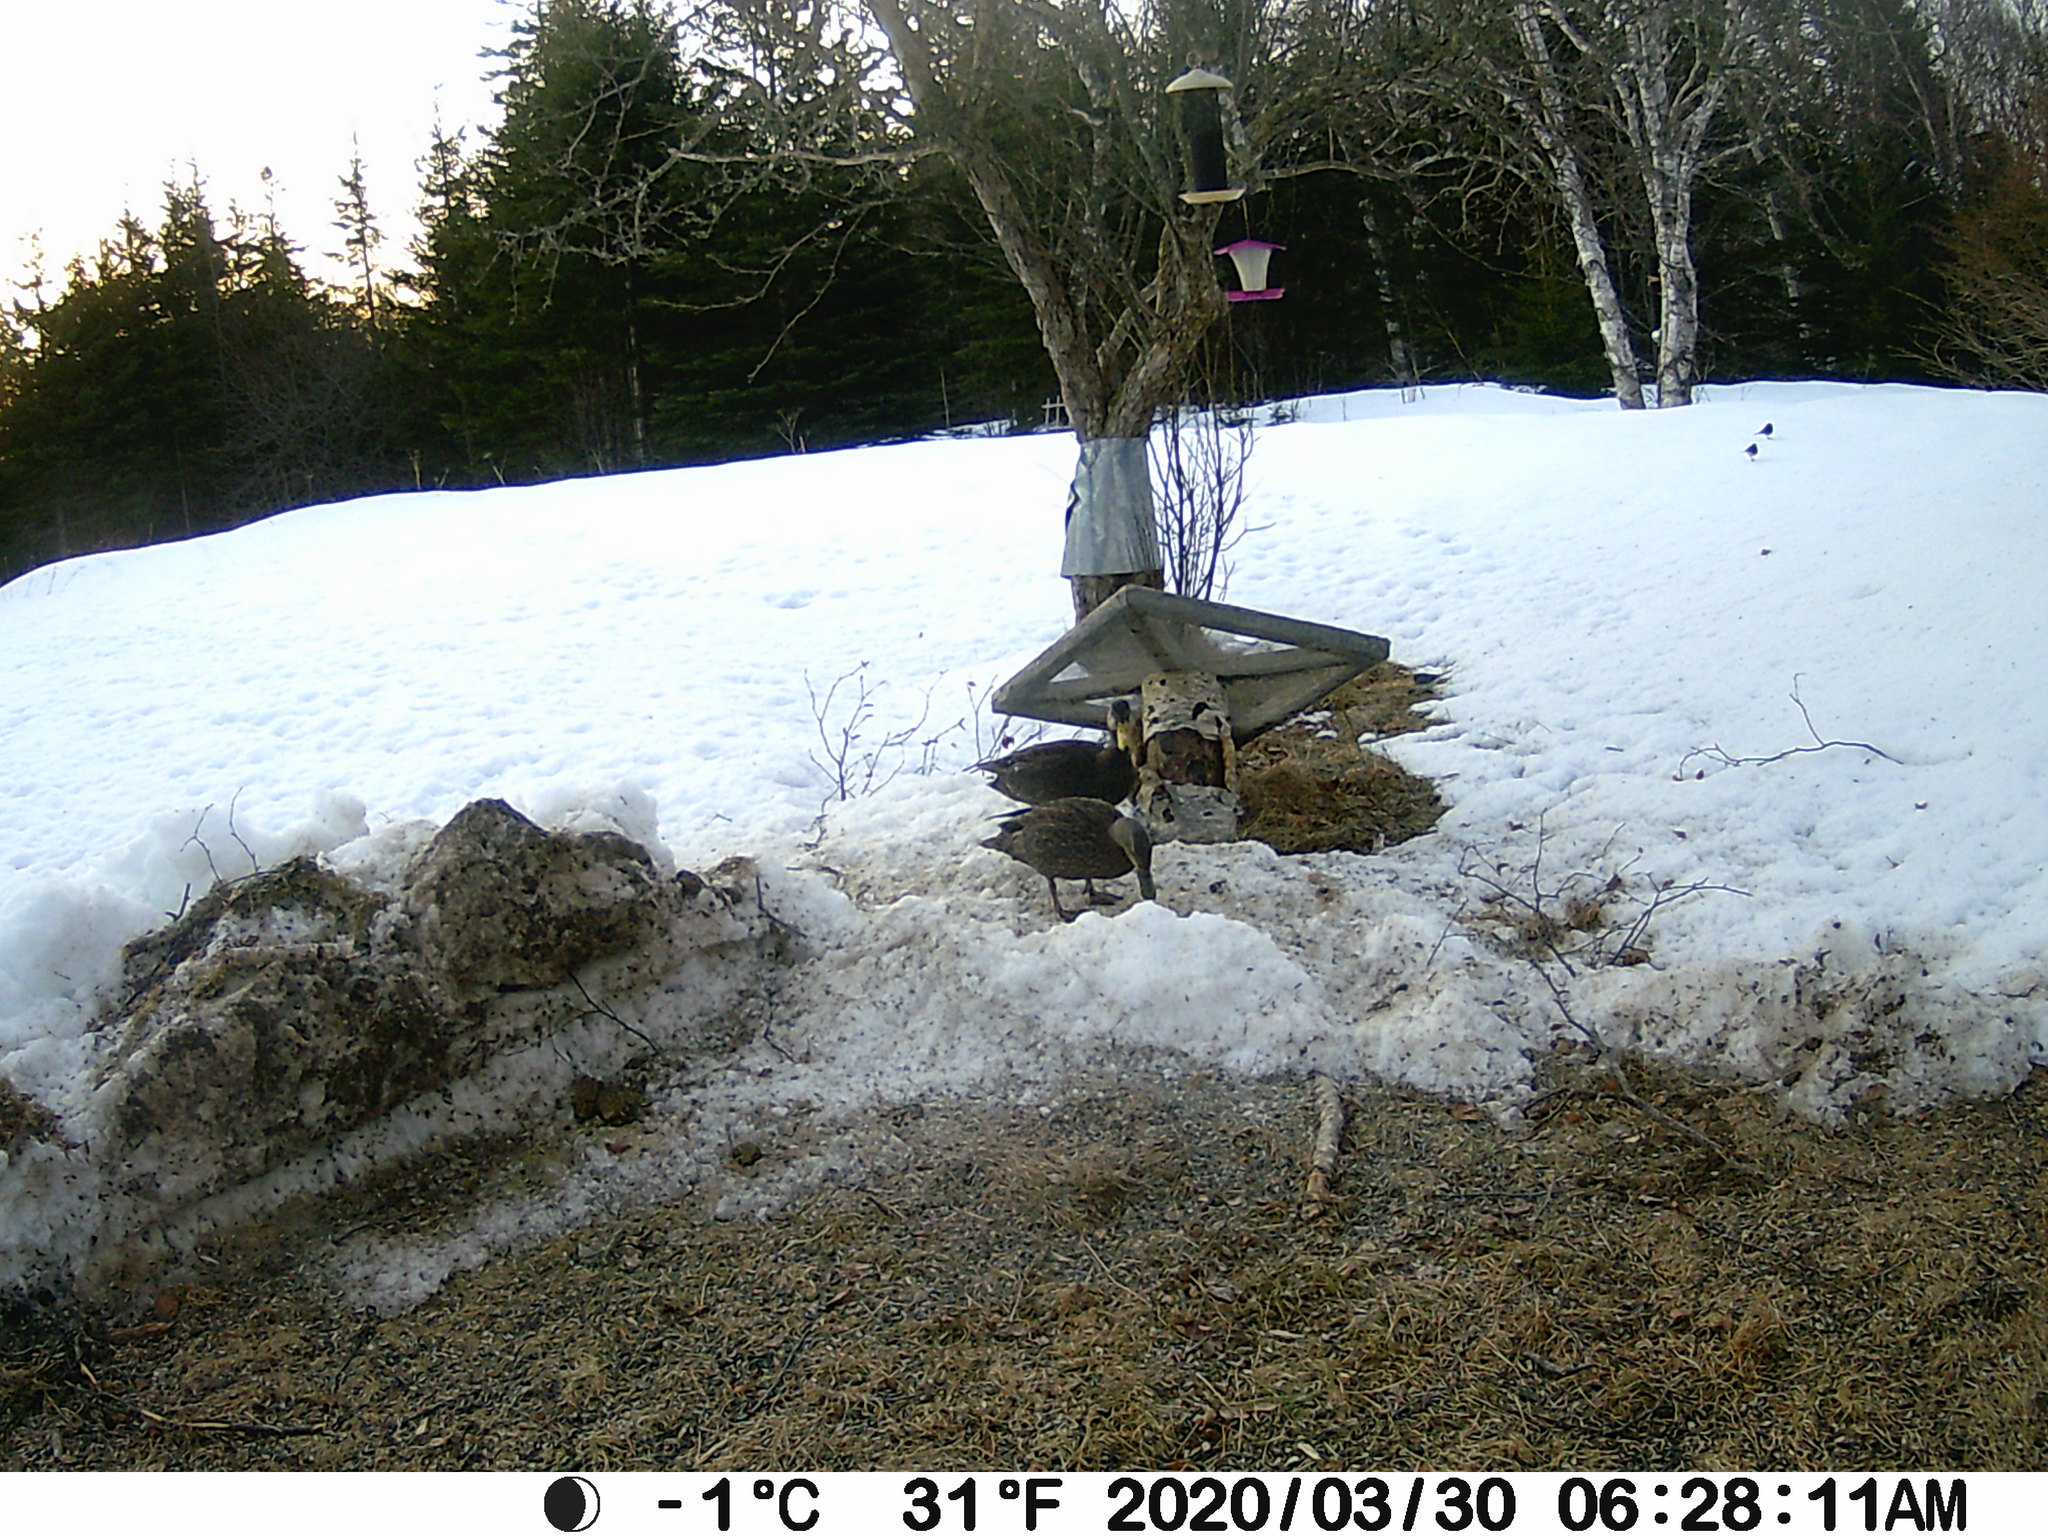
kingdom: Animalia
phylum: Chordata
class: Aves
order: Anseriformes
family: Anatidae
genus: Anas
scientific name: Anas rubripes
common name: American black duck
